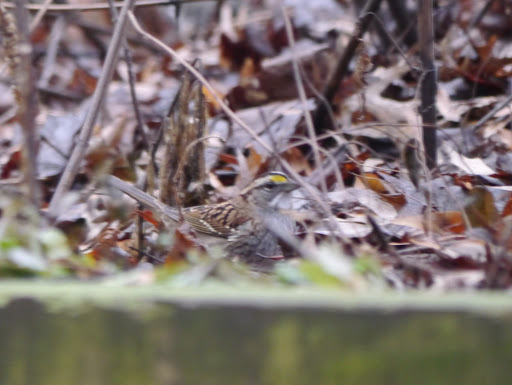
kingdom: Animalia
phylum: Chordata
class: Aves
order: Passeriformes
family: Passerellidae
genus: Zonotrichia
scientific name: Zonotrichia albicollis
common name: White-throated sparrow
